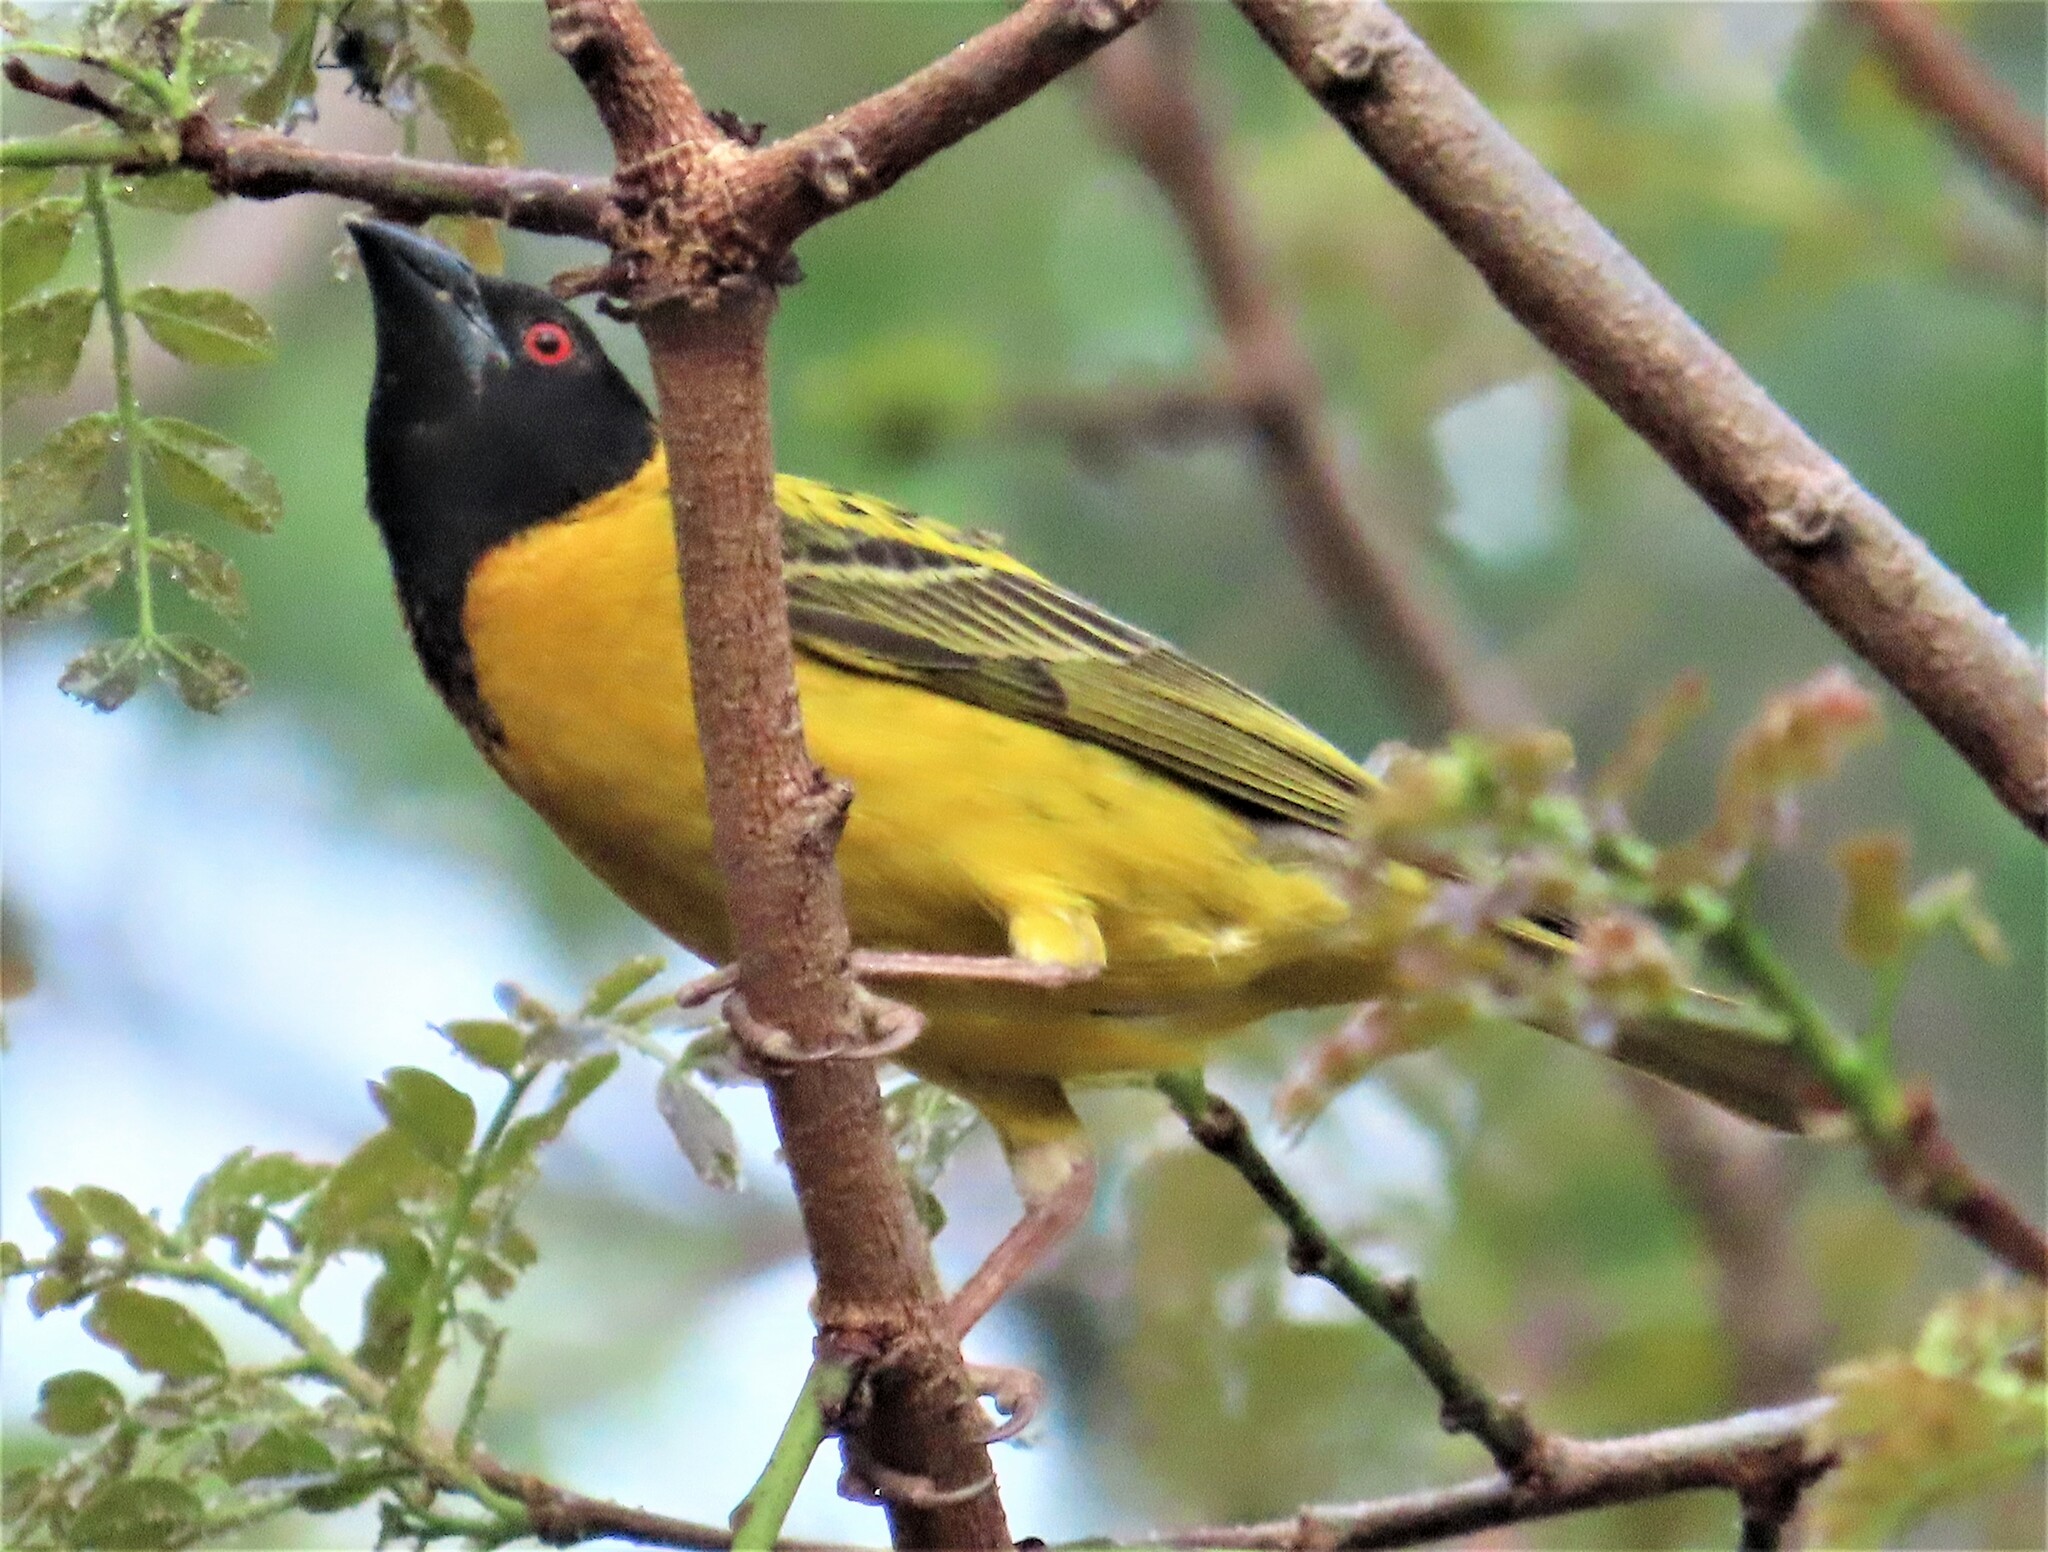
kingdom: Animalia
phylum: Chordata
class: Aves
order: Passeriformes
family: Ploceidae
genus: Ploceus
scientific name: Ploceus cucullatus
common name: Village weaver
